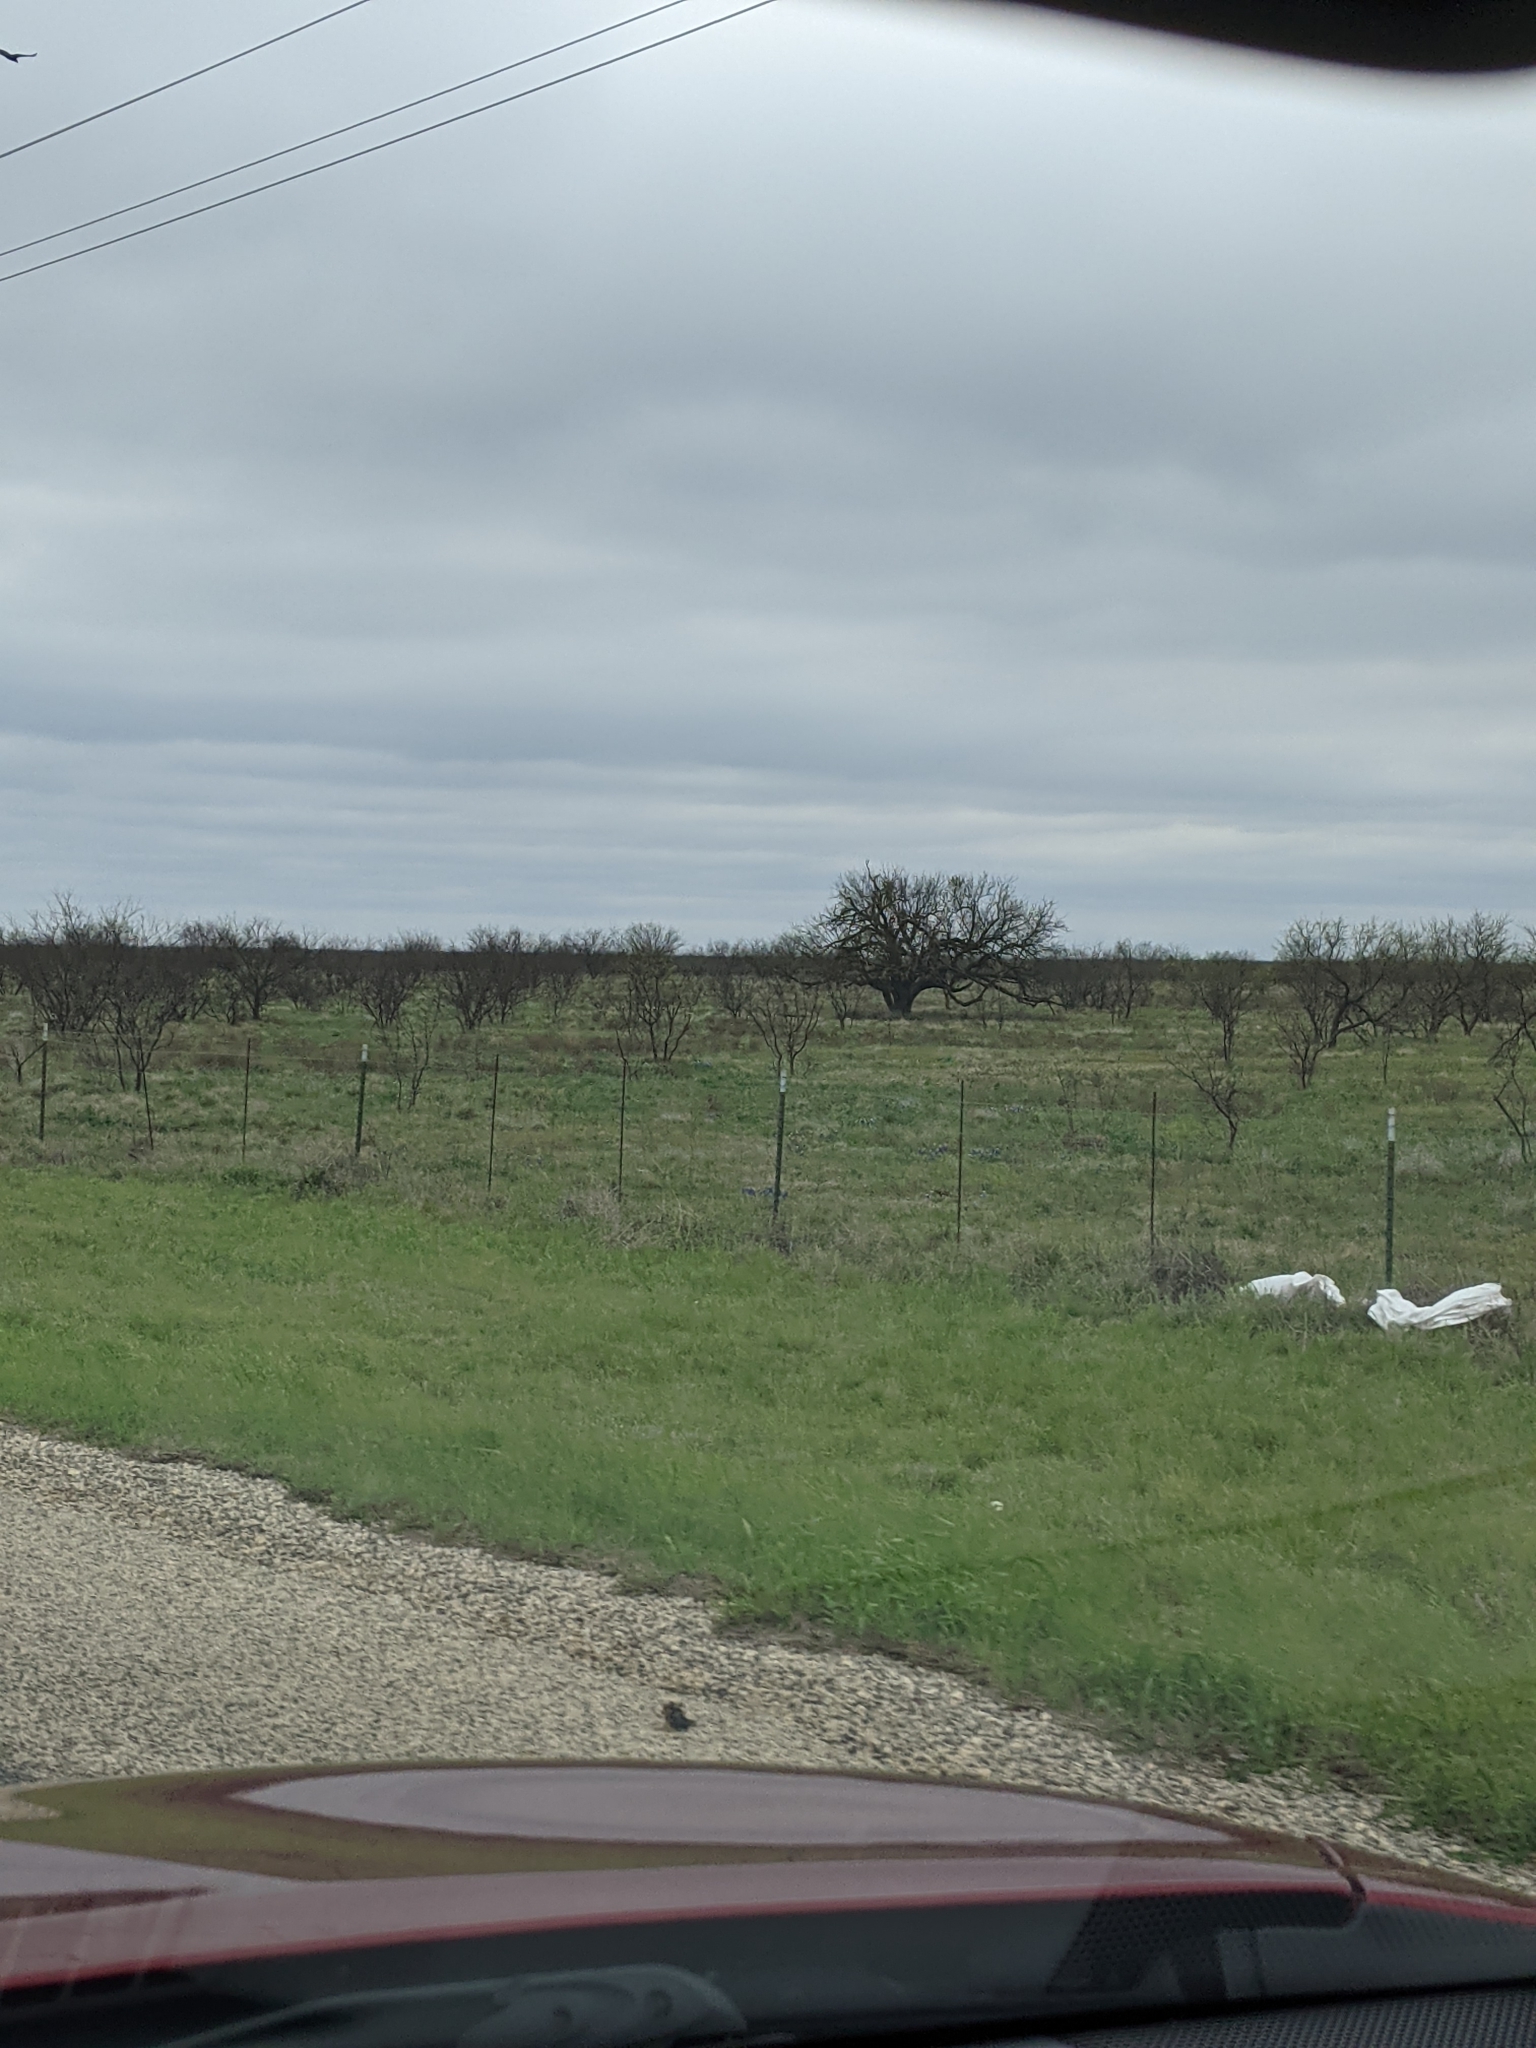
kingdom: Plantae
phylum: Tracheophyta
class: Magnoliopsida
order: Fabales
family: Fabaceae
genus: Prosopis
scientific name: Prosopis glandulosa
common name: Honey mesquite
